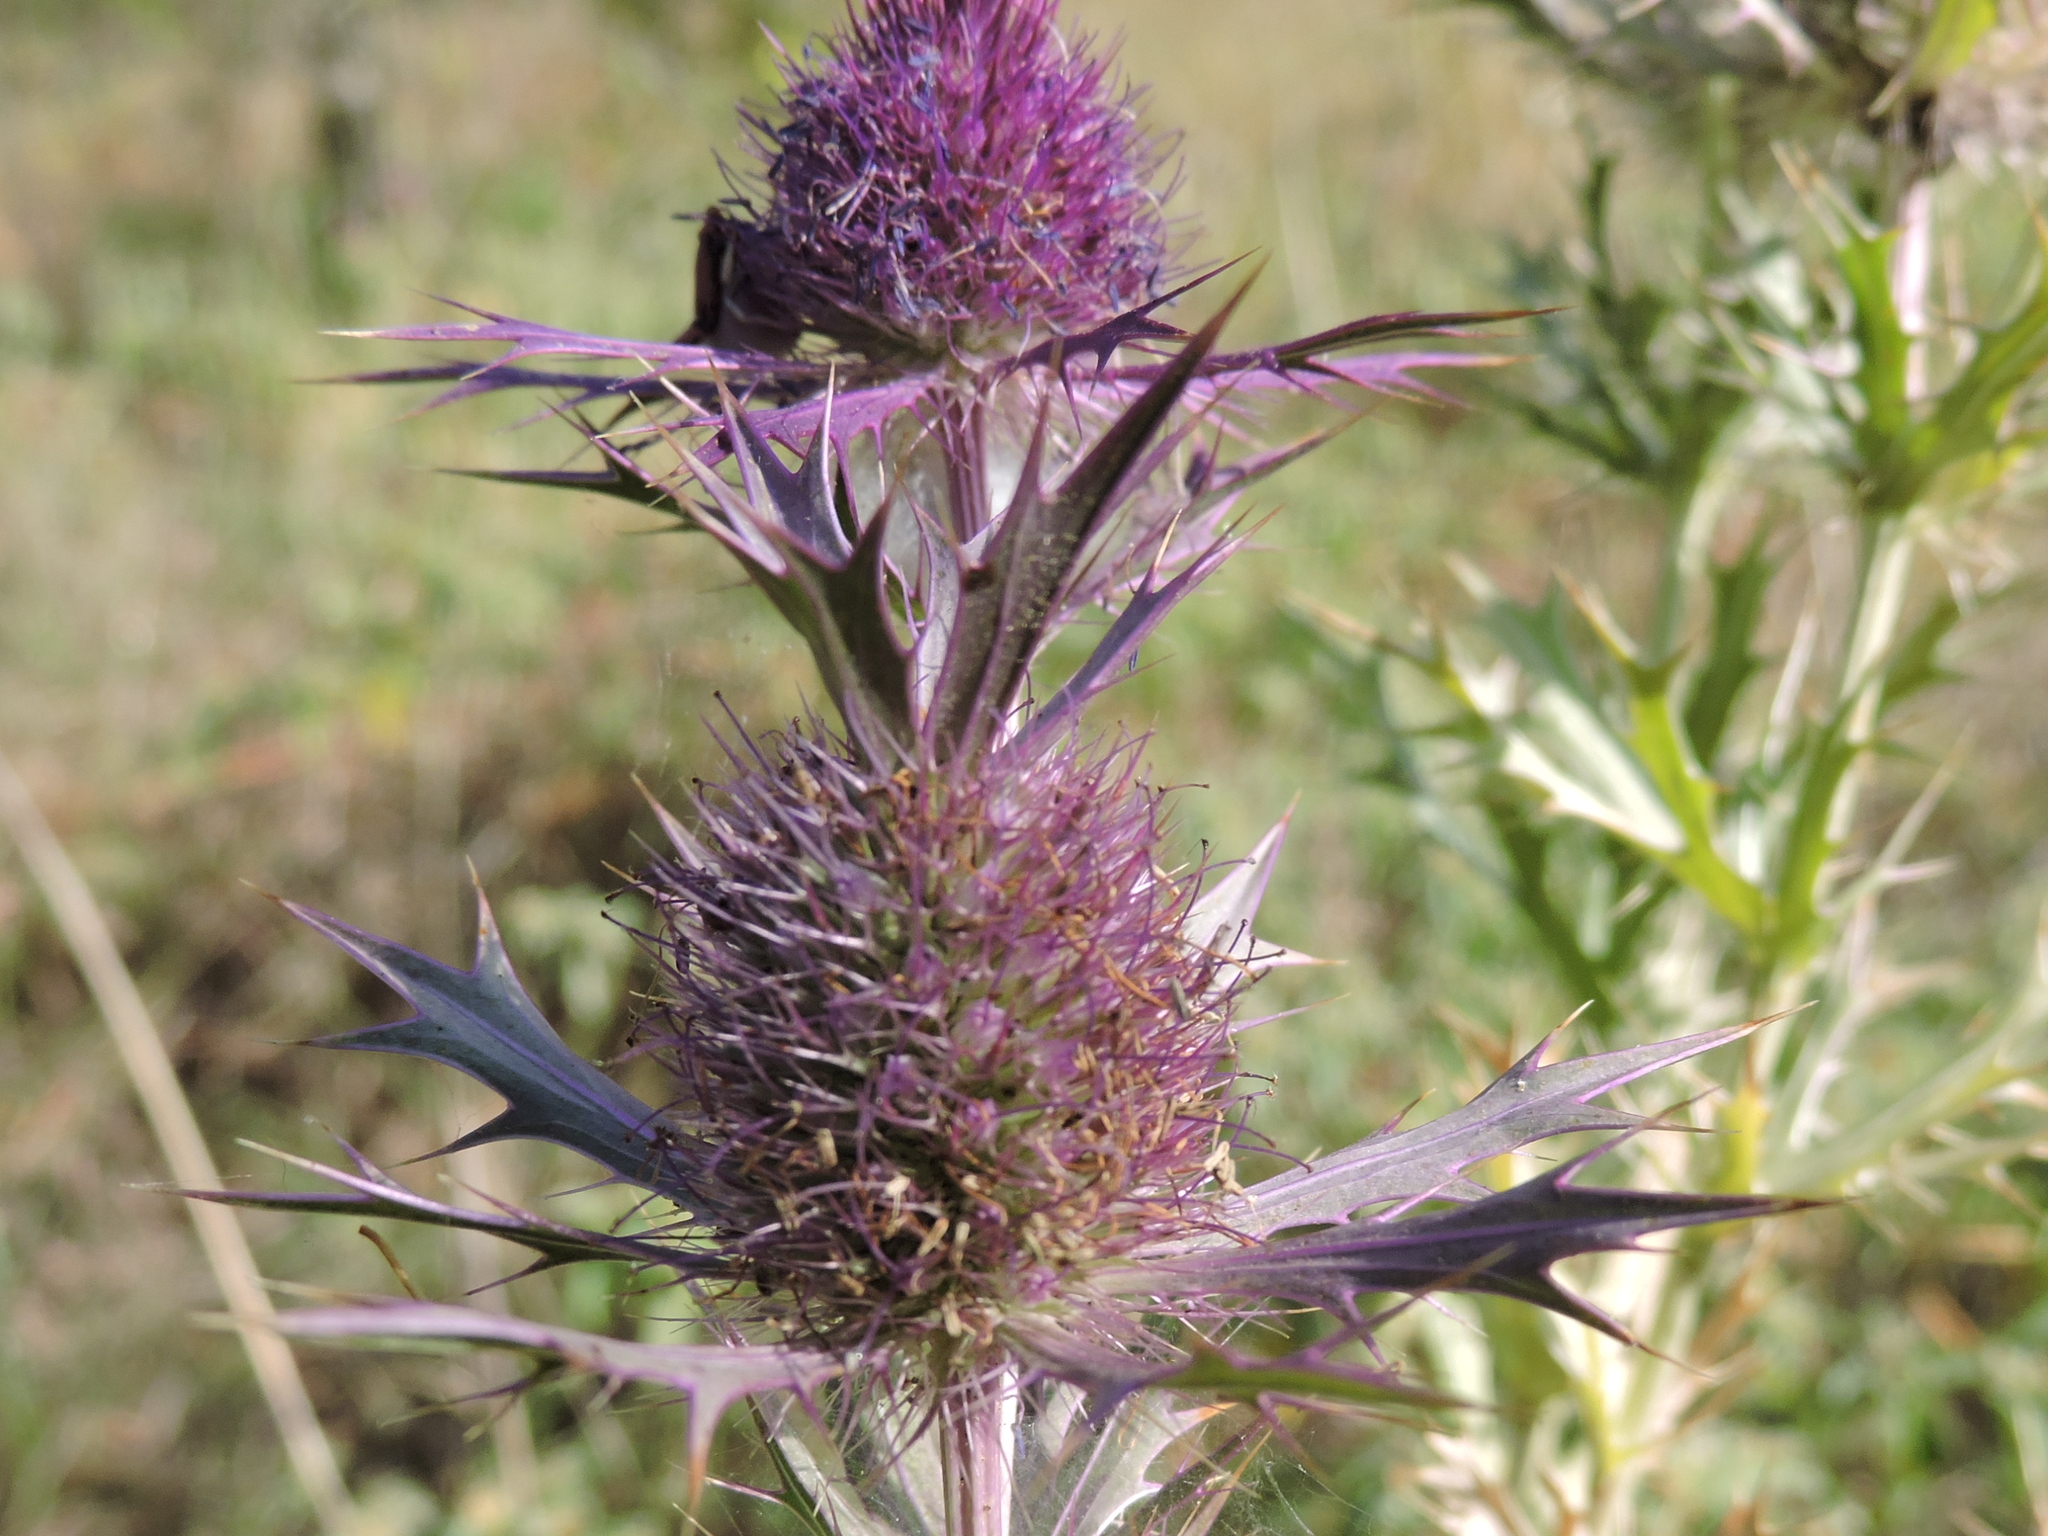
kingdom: Plantae
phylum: Tracheophyta
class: Magnoliopsida
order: Apiales
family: Apiaceae
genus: Eryngium
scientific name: Eryngium leavenworthii
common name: Leavenworth's eryngo
